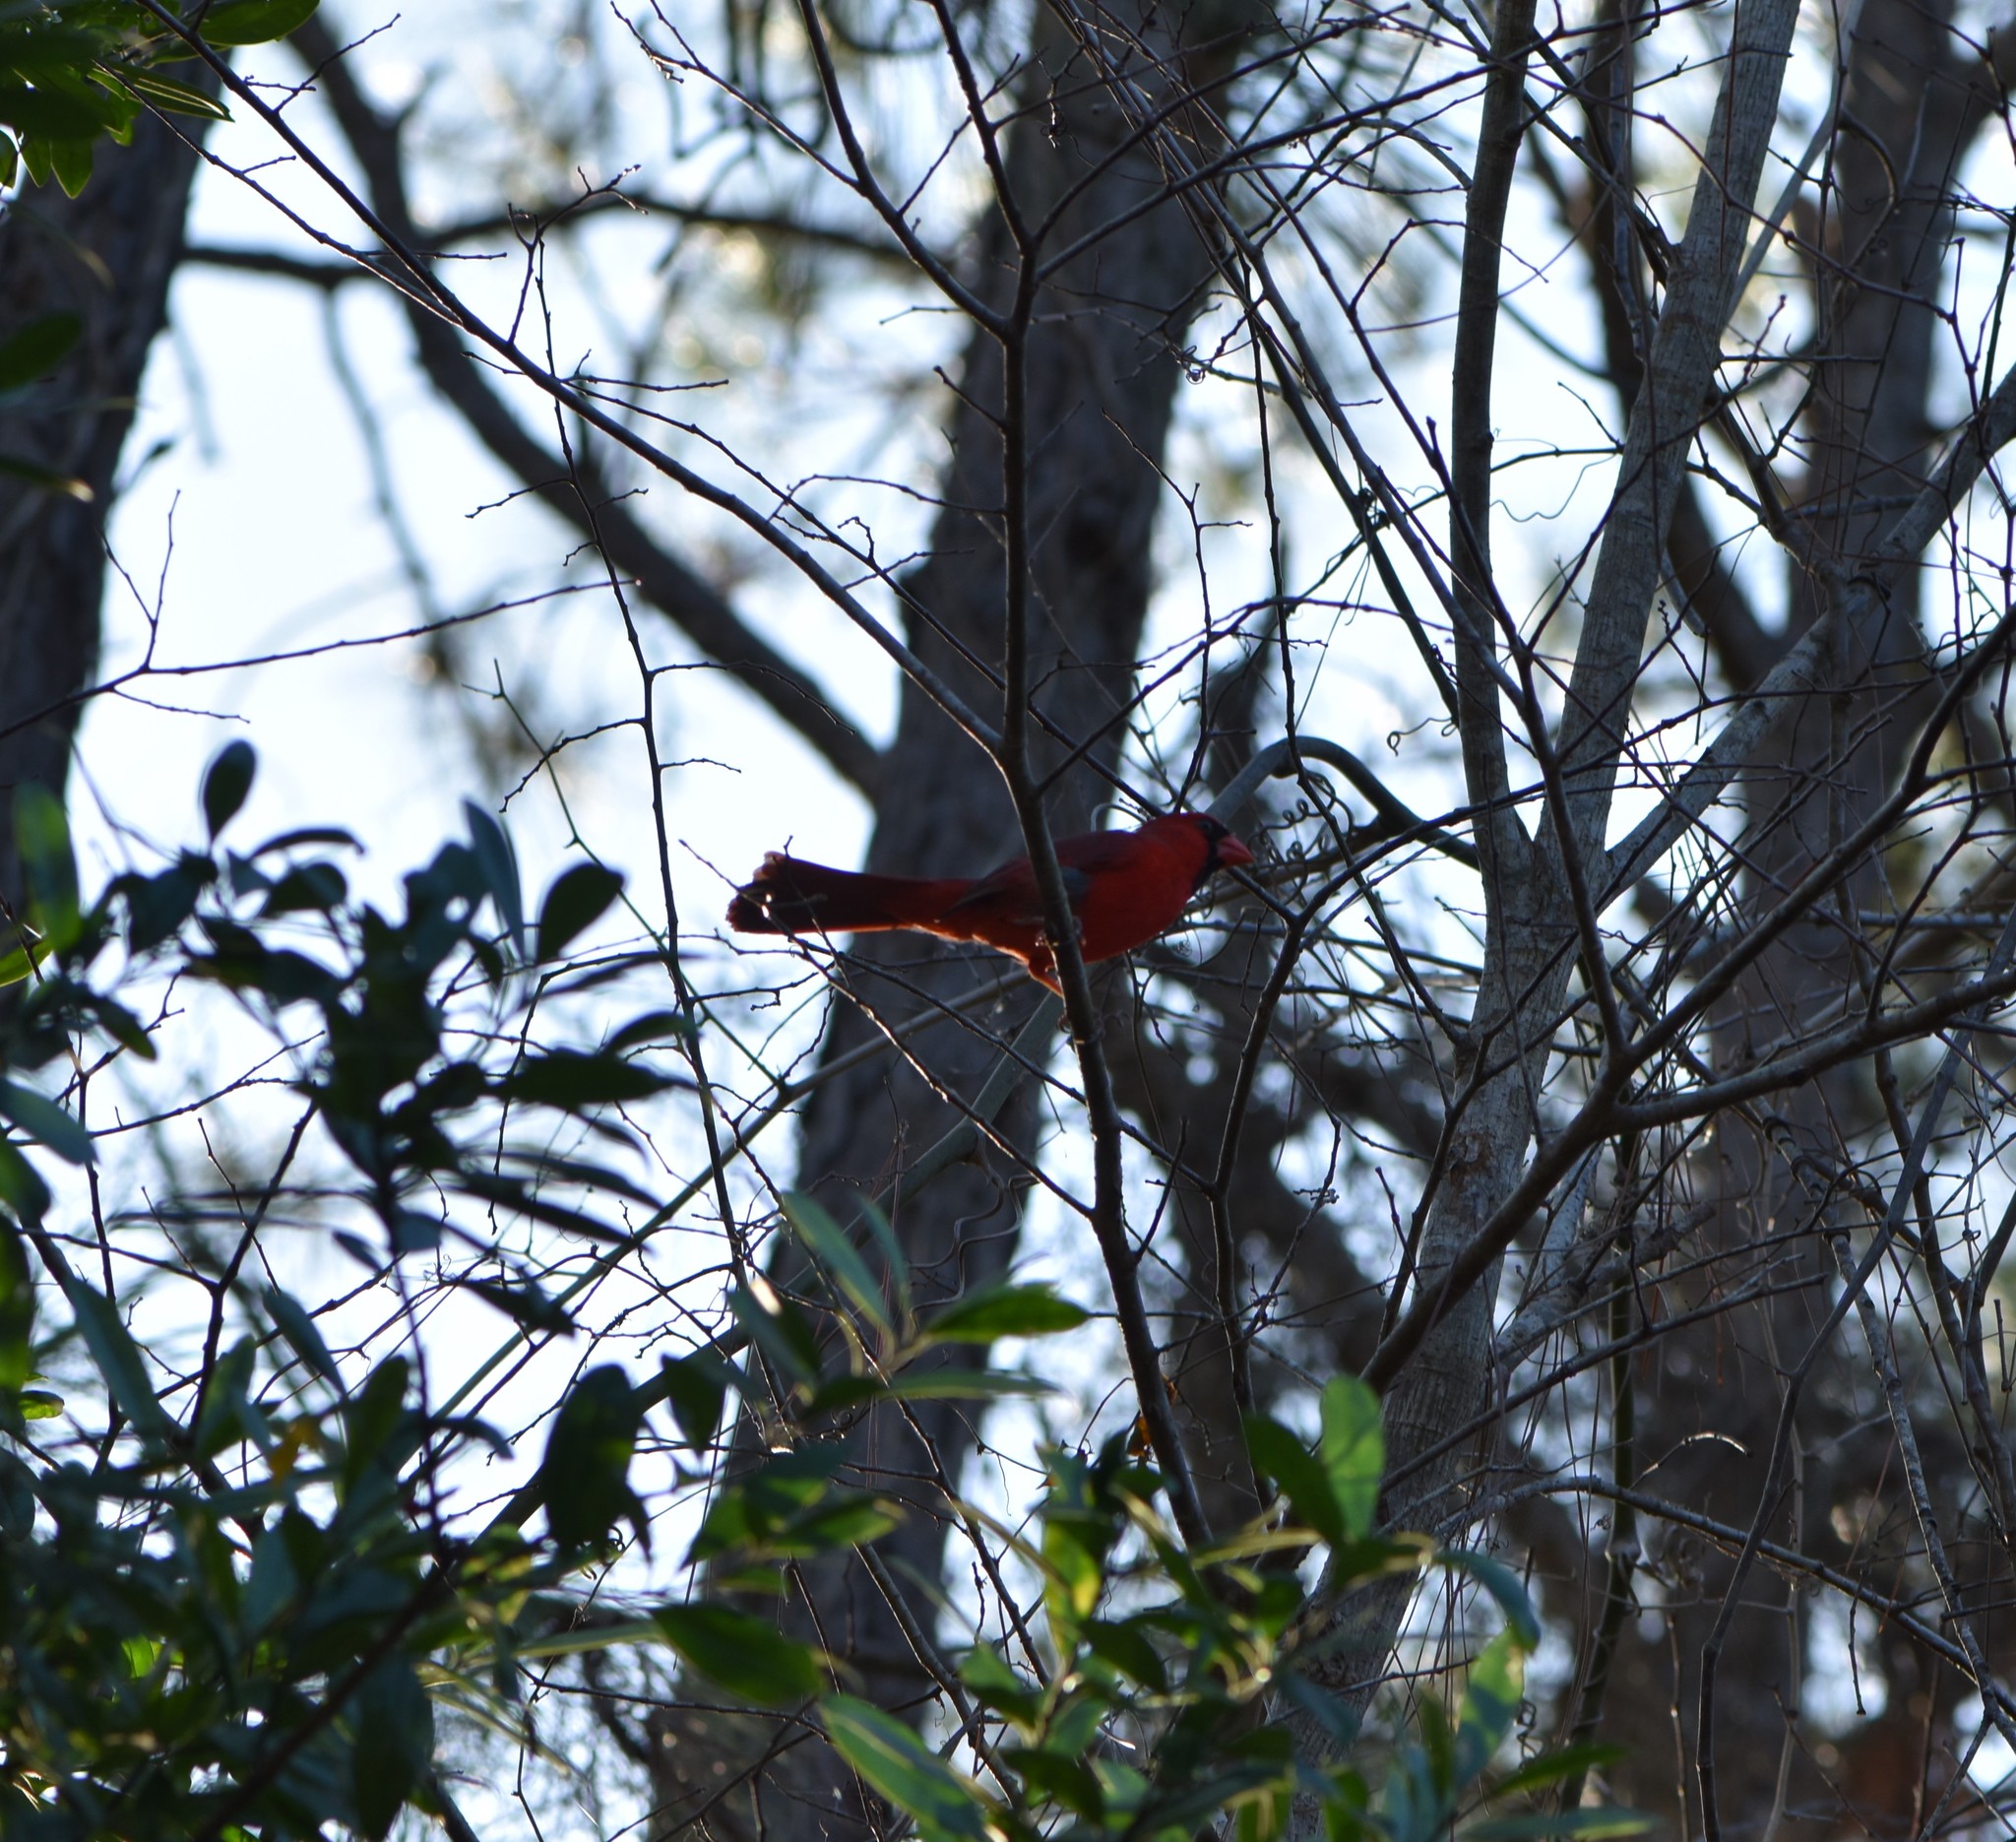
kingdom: Animalia
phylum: Chordata
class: Aves
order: Passeriformes
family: Cardinalidae
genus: Cardinalis
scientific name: Cardinalis cardinalis
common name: Northern cardinal
